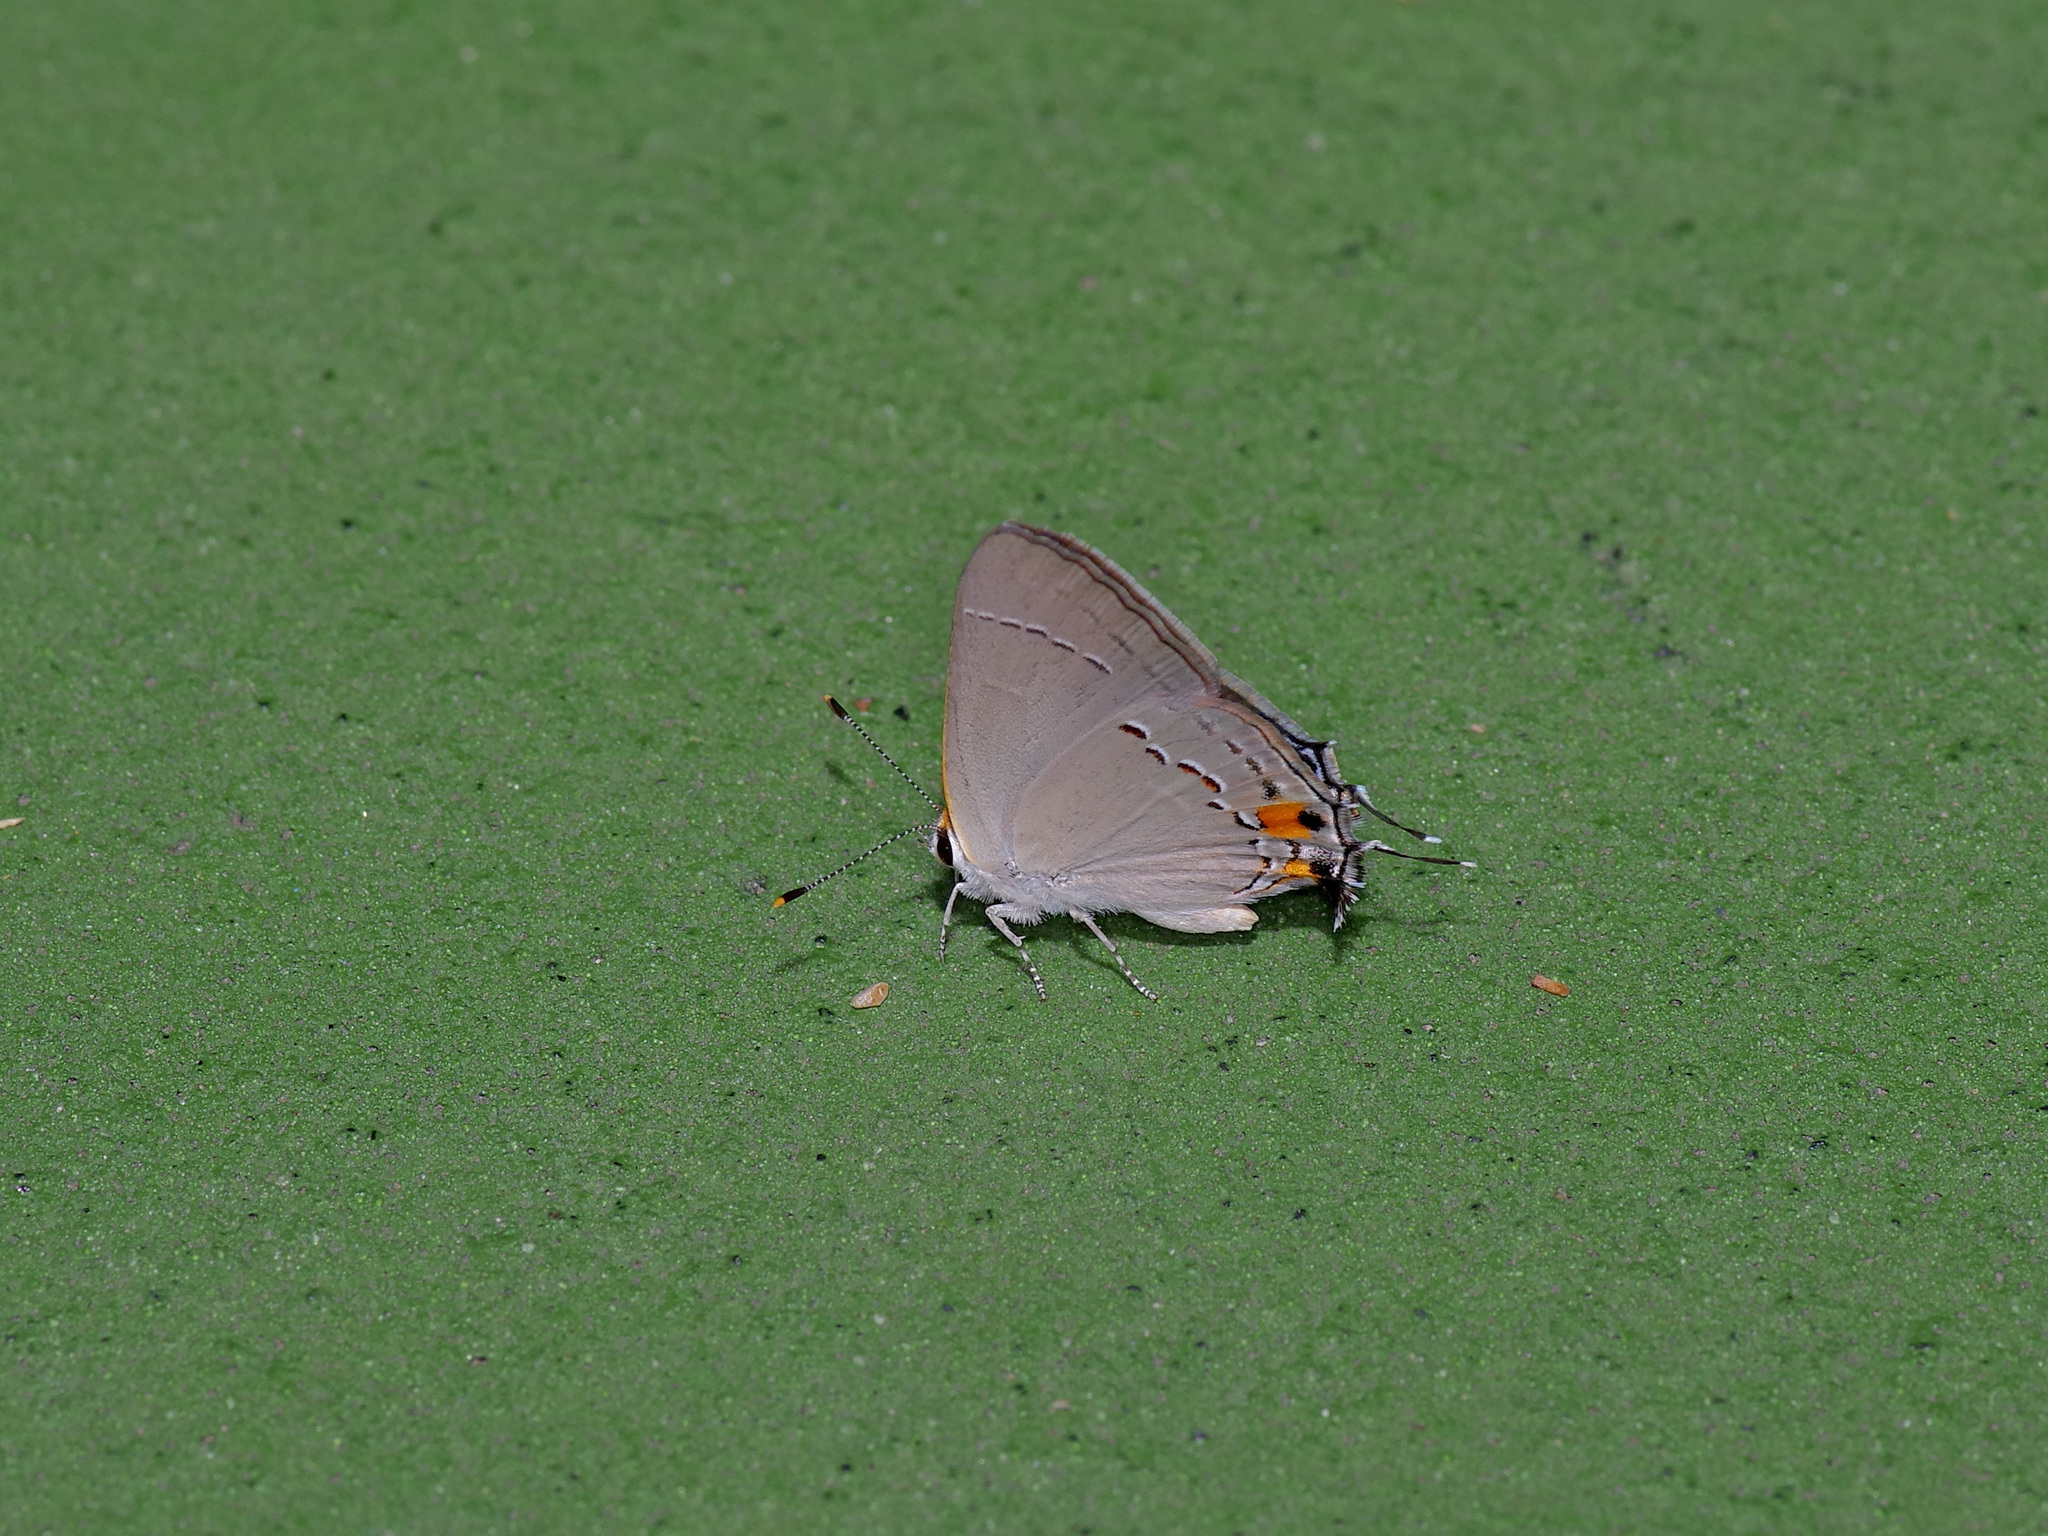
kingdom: Animalia
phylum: Arthropoda
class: Insecta
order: Lepidoptera
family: Lycaenidae
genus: Strymon
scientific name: Strymon melinus
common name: Gray hairstreak
